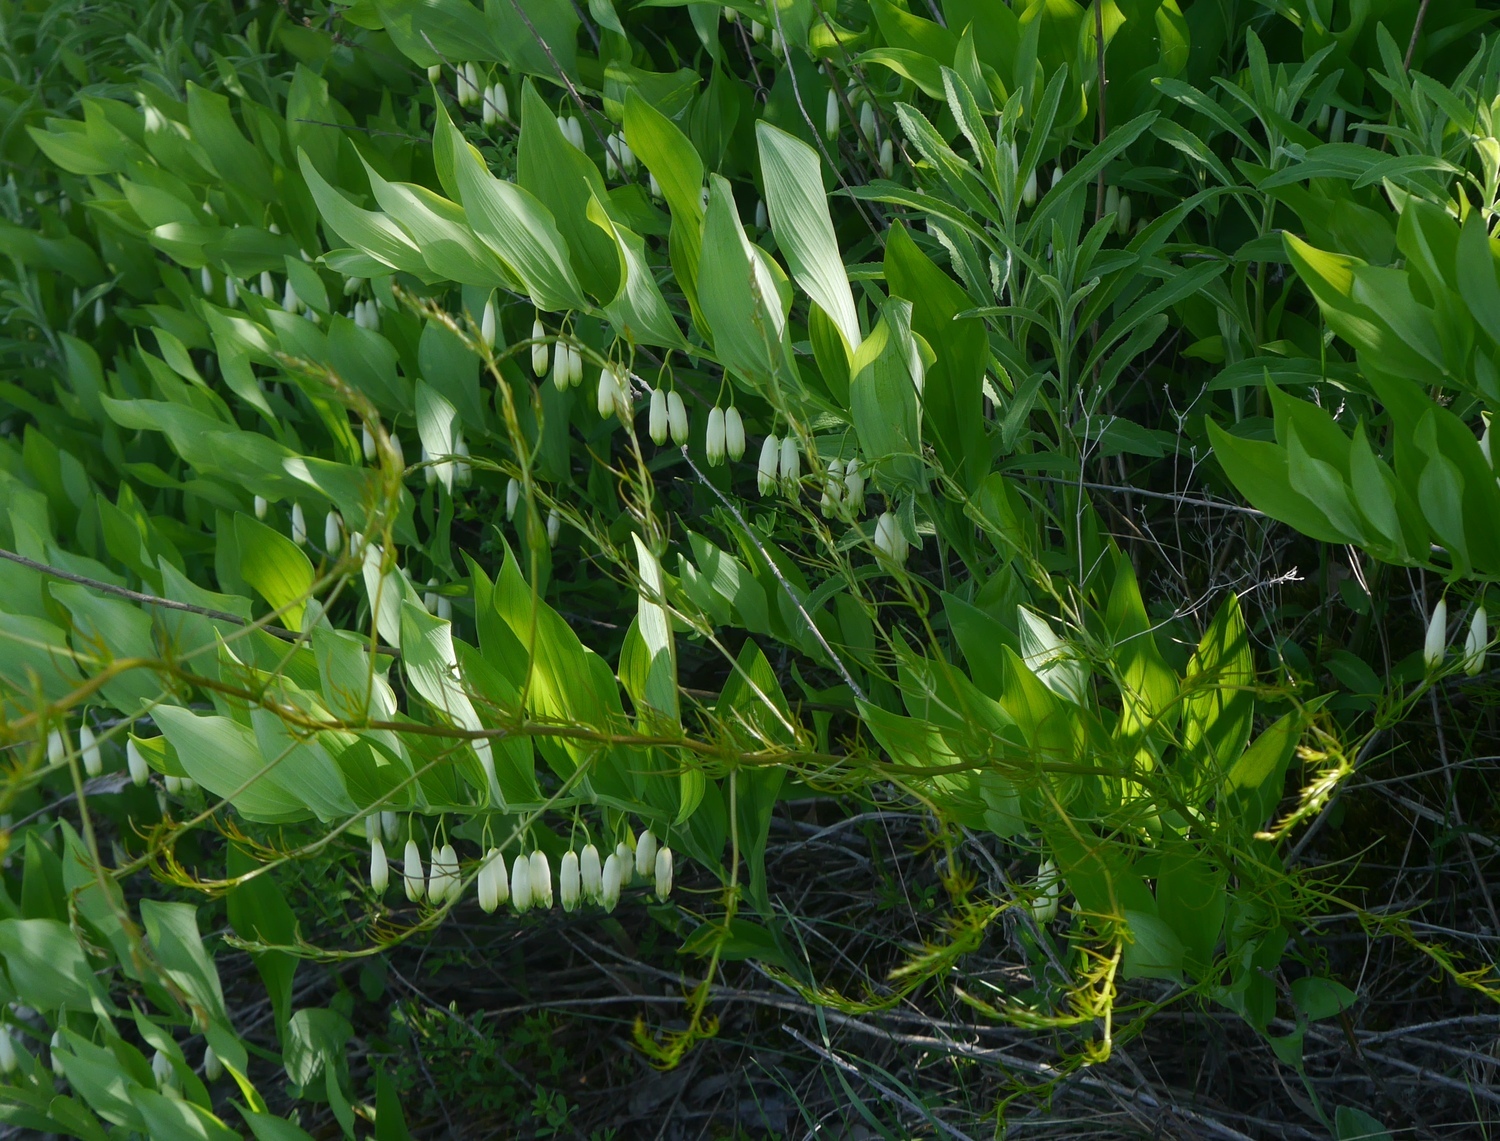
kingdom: Plantae
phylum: Tracheophyta
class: Liliopsida
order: Asparagales
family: Asparagaceae
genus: Polygonatum
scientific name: Polygonatum odoratum
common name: Angular solomon's-seal
